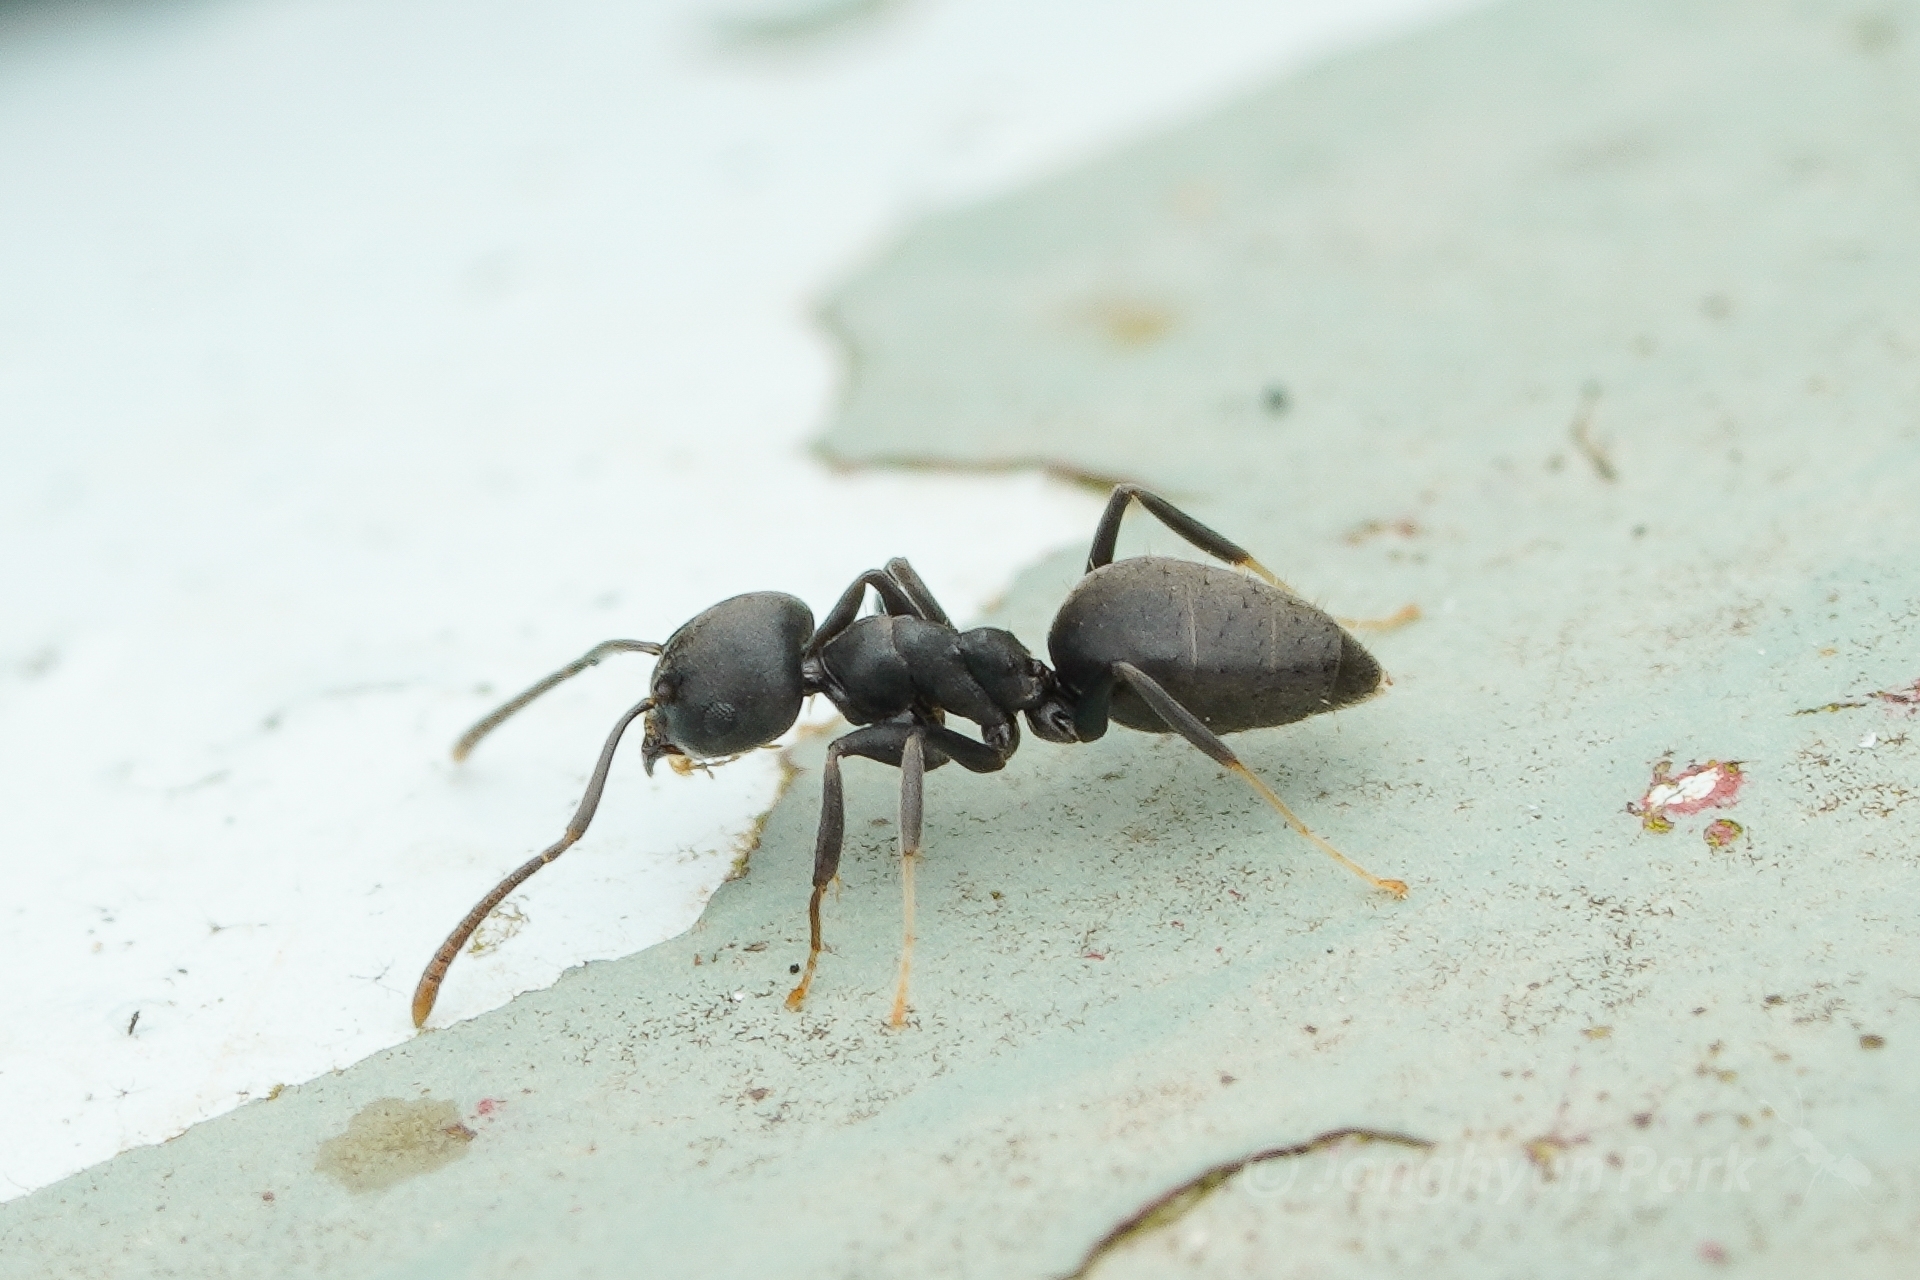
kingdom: Animalia
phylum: Arthropoda
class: Insecta
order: Hymenoptera
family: Formicidae
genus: Technomyrmex
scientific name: Technomyrmex brunneus
